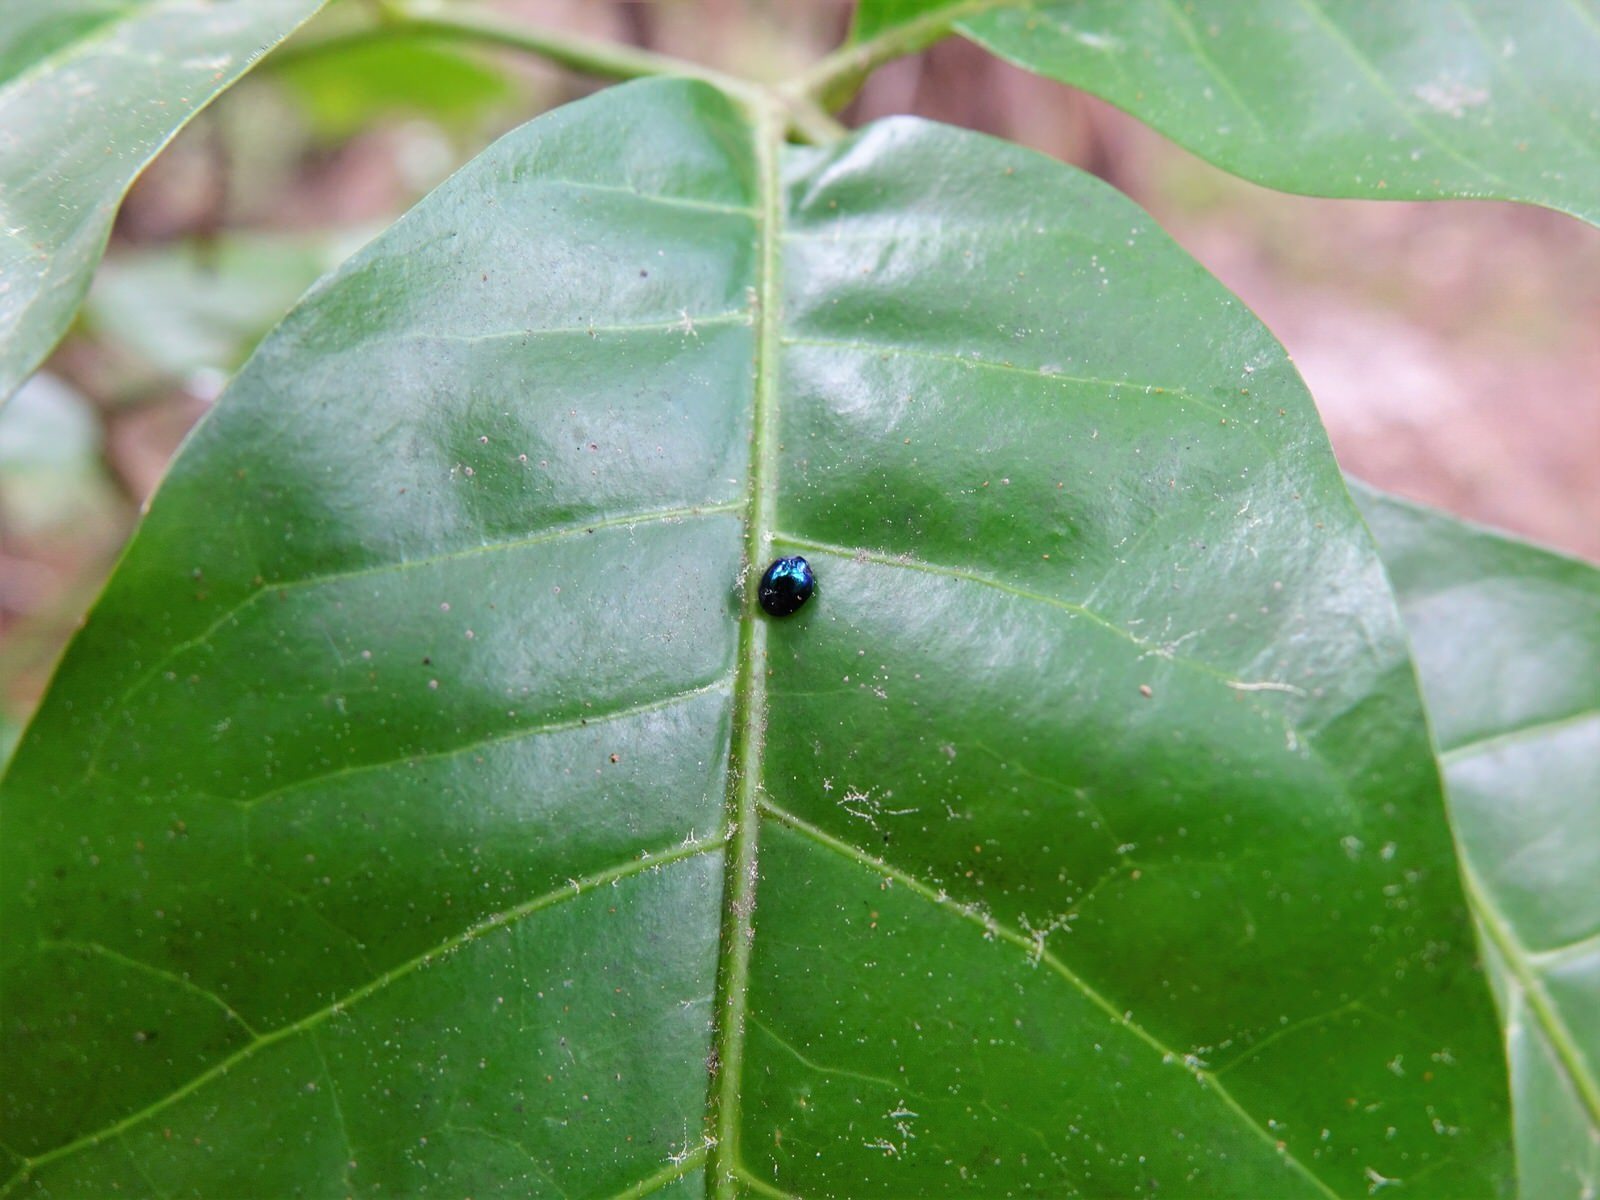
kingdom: Animalia
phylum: Arthropoda
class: Insecta
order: Coleoptera
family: Coccinellidae
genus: Halmus
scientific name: Halmus chalybeus
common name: Steel blue ladybird beetle
